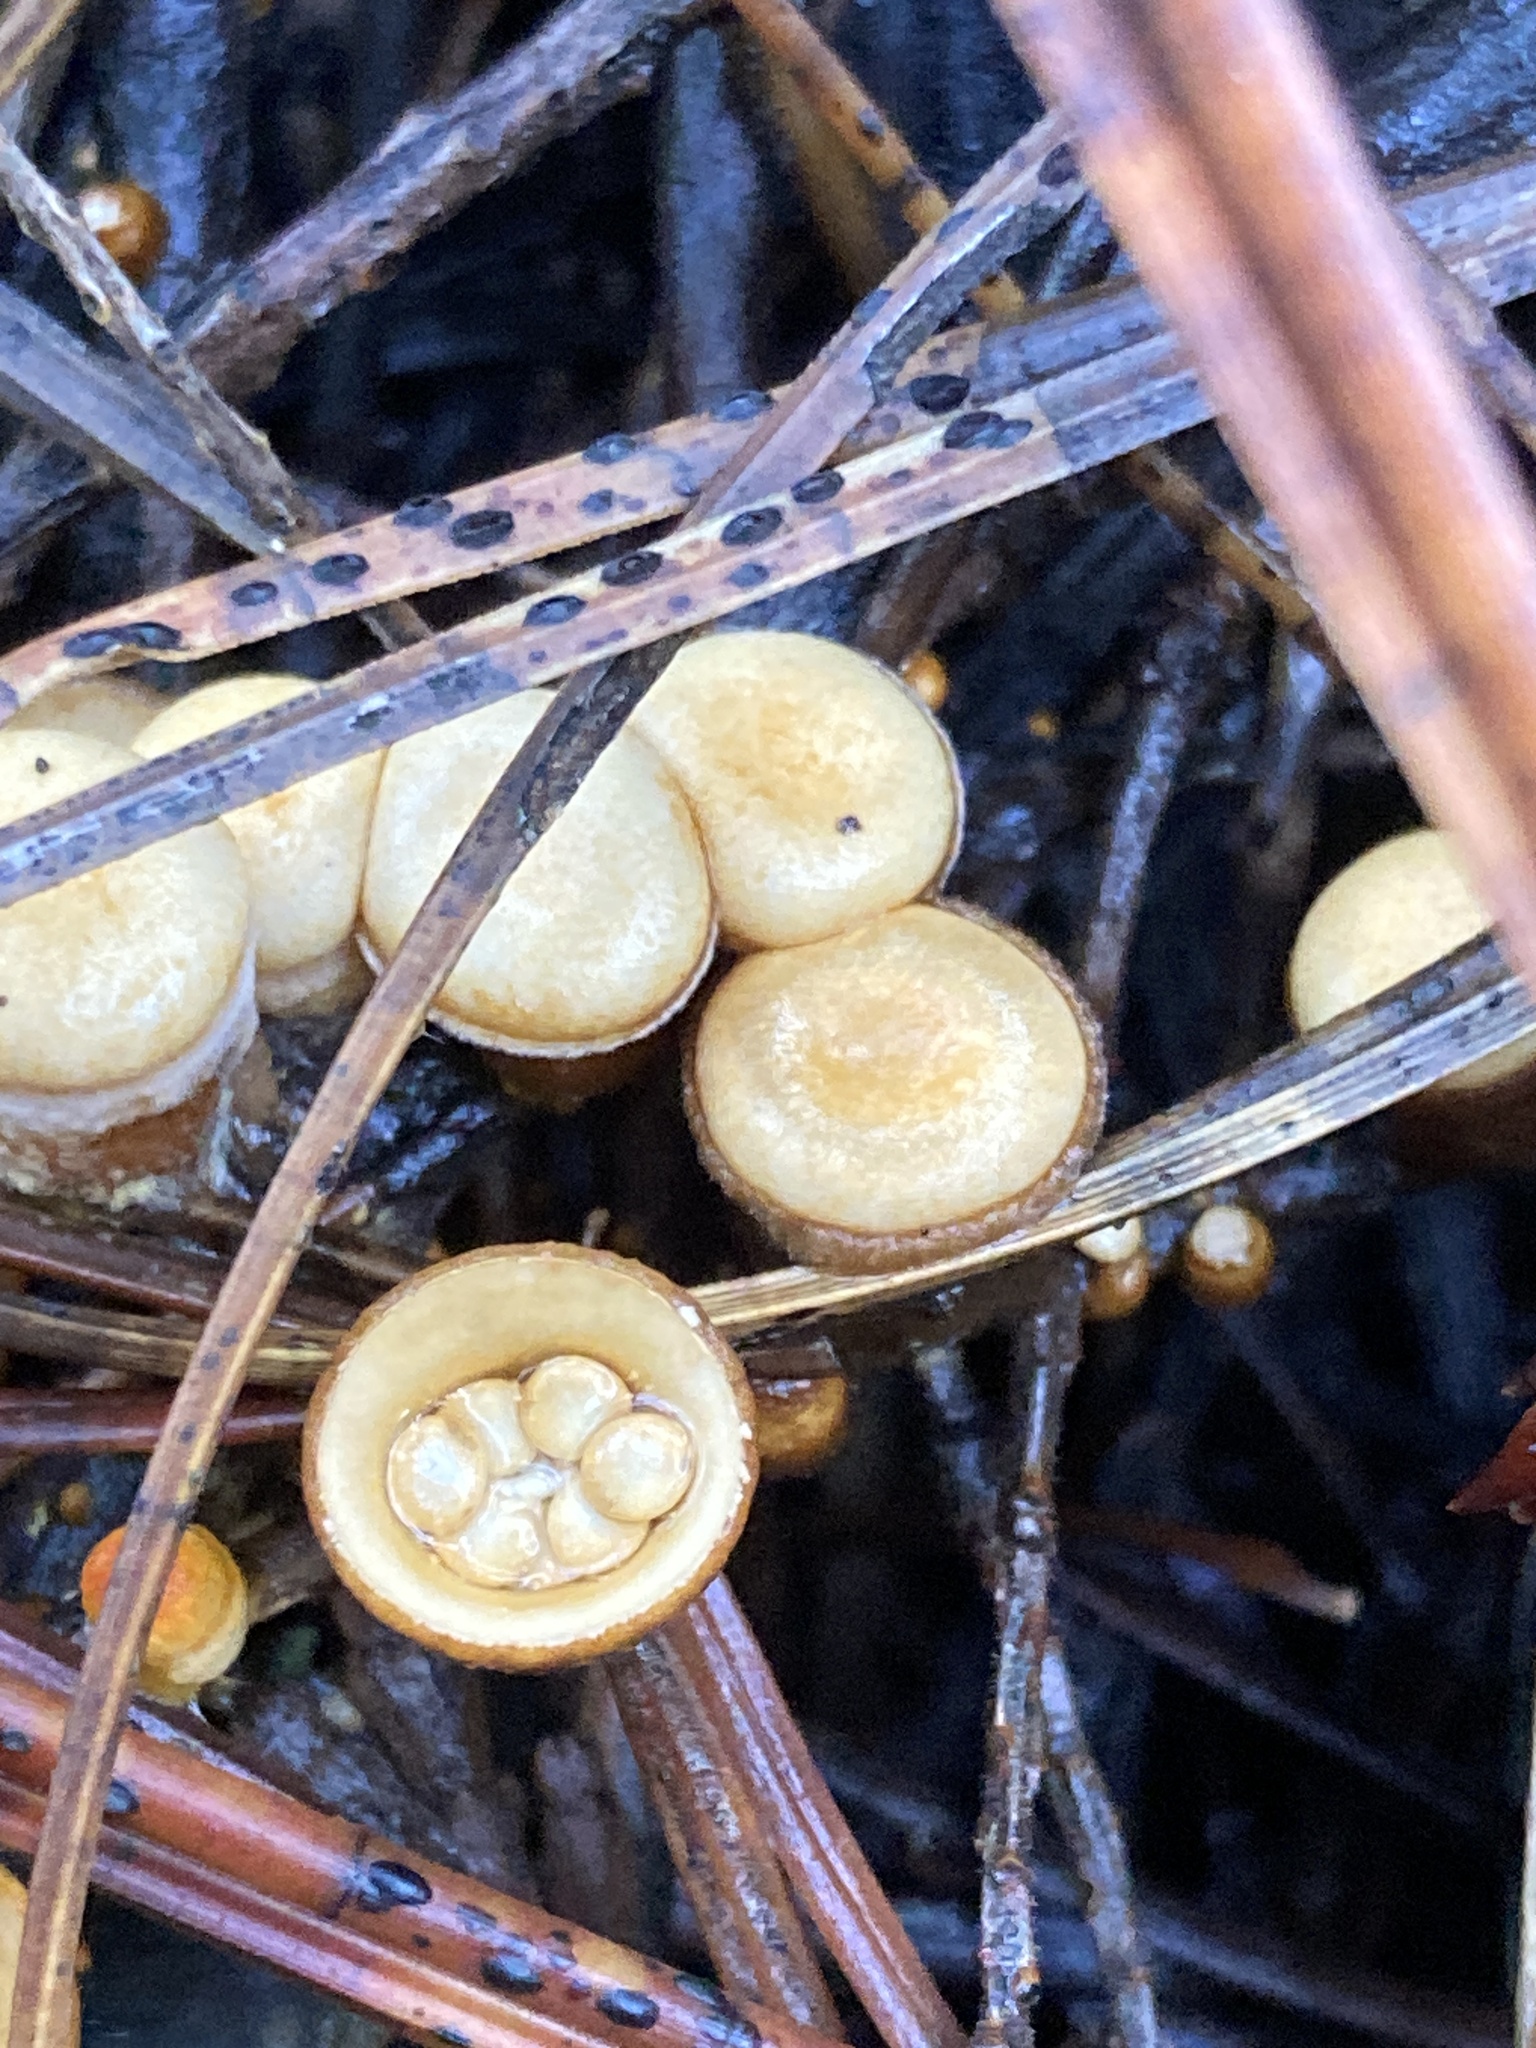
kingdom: Fungi
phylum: Basidiomycota
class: Agaricomycetes
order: Agaricales
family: Nidulariaceae
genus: Crucibulum
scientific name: Crucibulum laeve
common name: Common bird's nest
